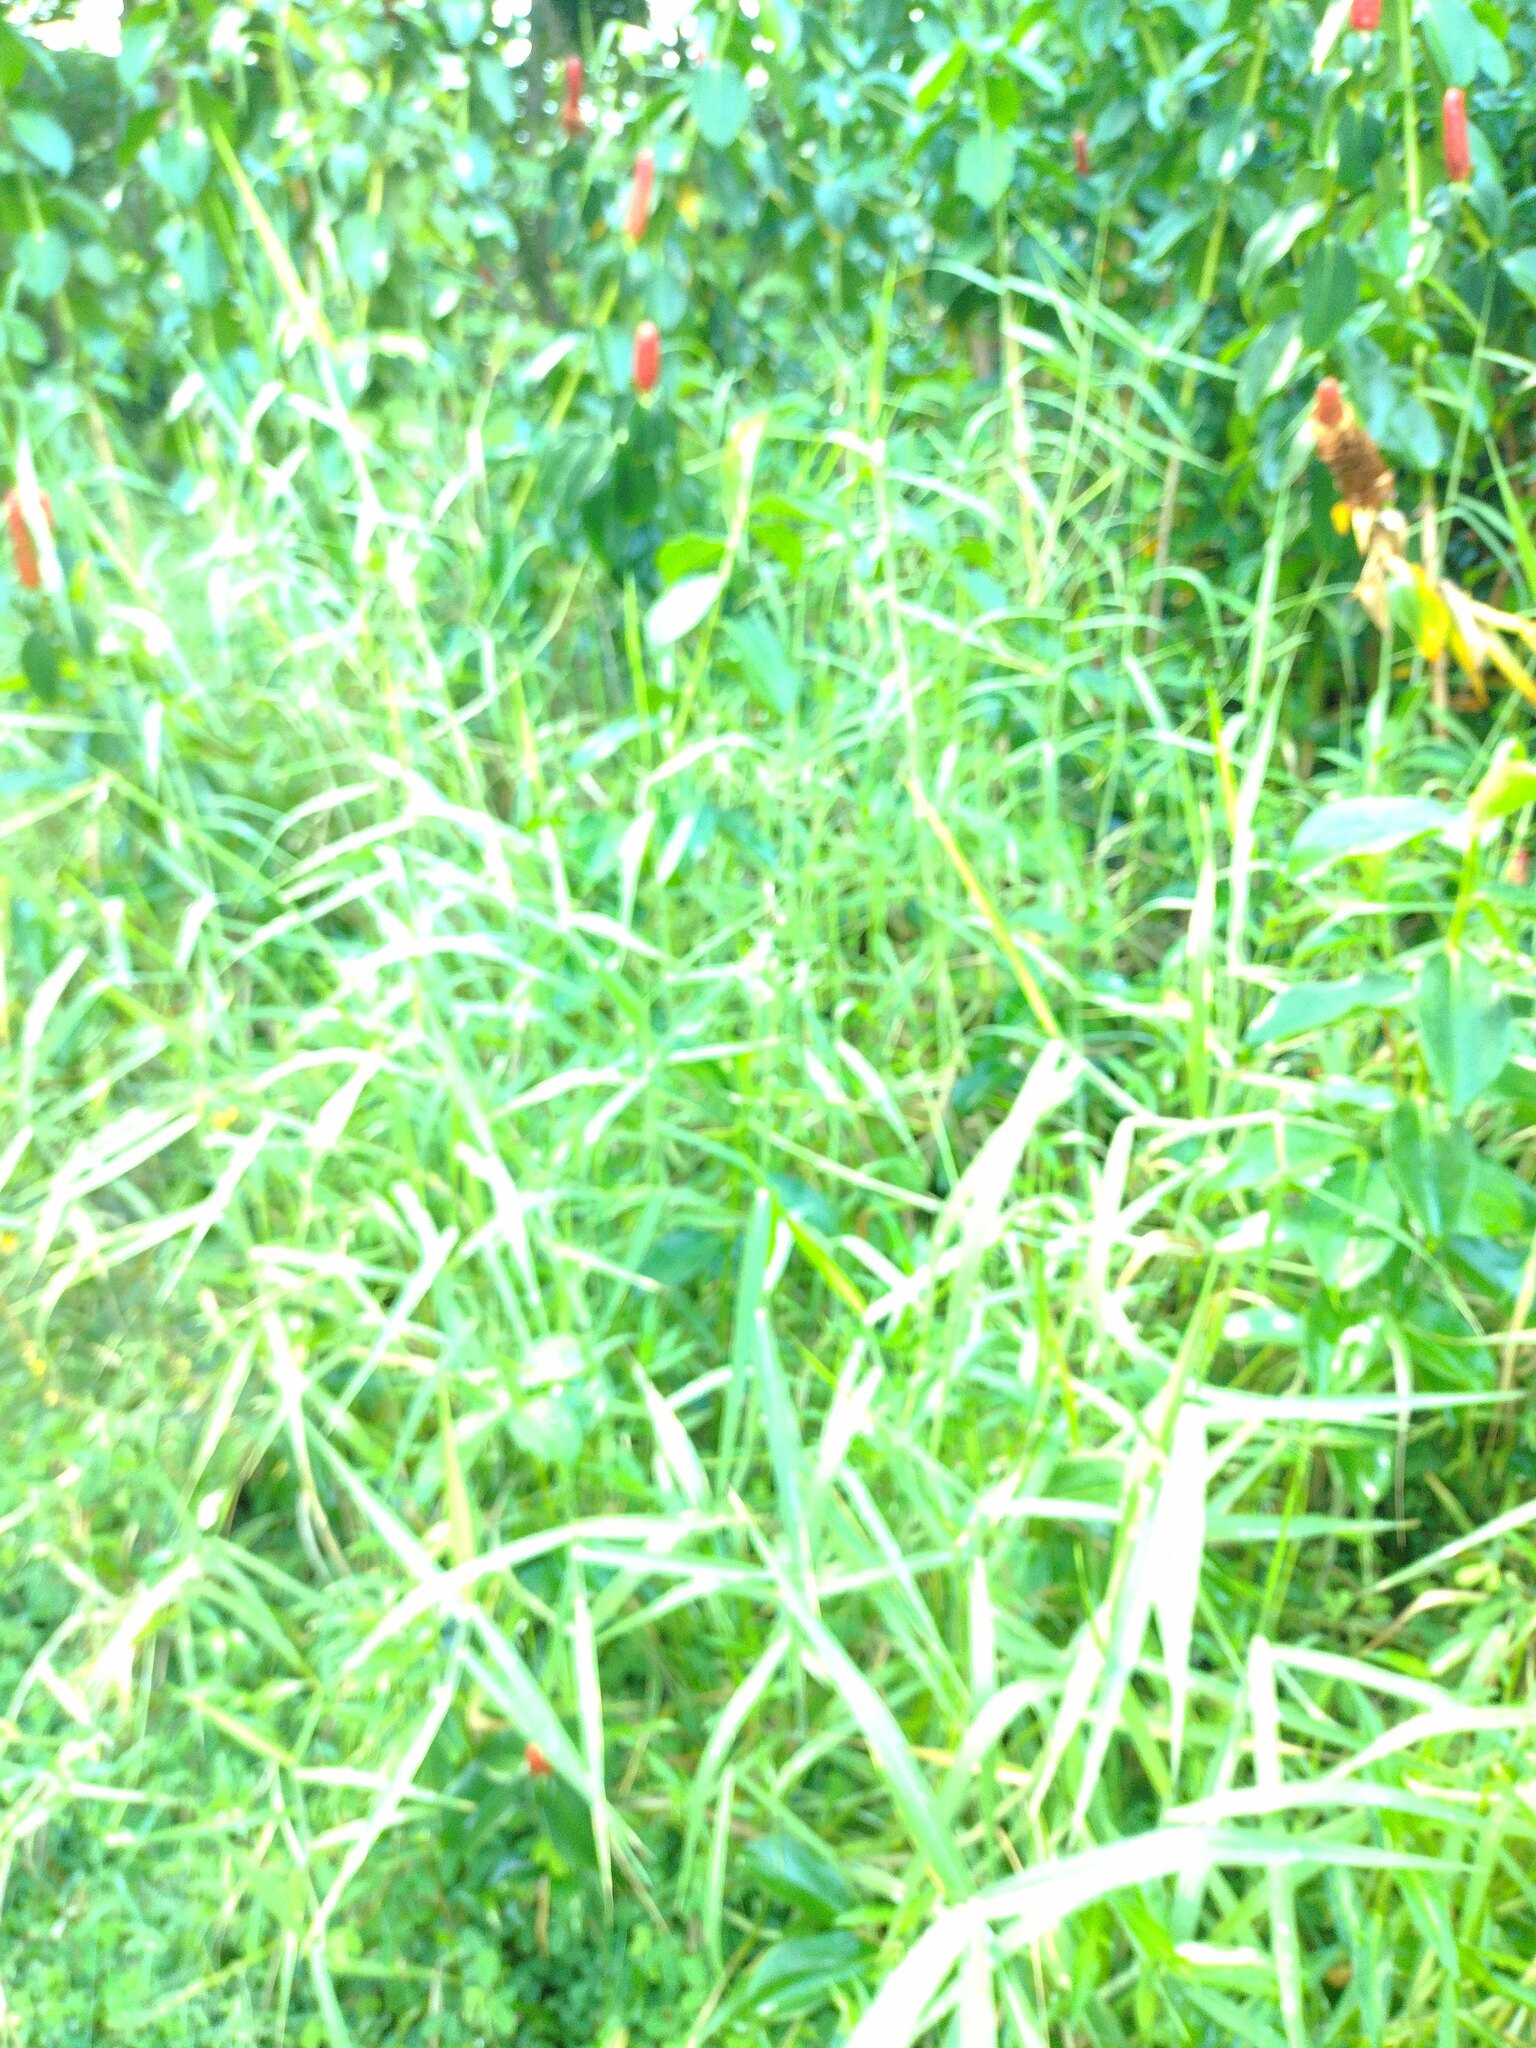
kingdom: Plantae
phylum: Tracheophyta
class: Liliopsida
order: Poales
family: Poaceae
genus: Urochloa
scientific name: Urochloa mutica
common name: Para grass
